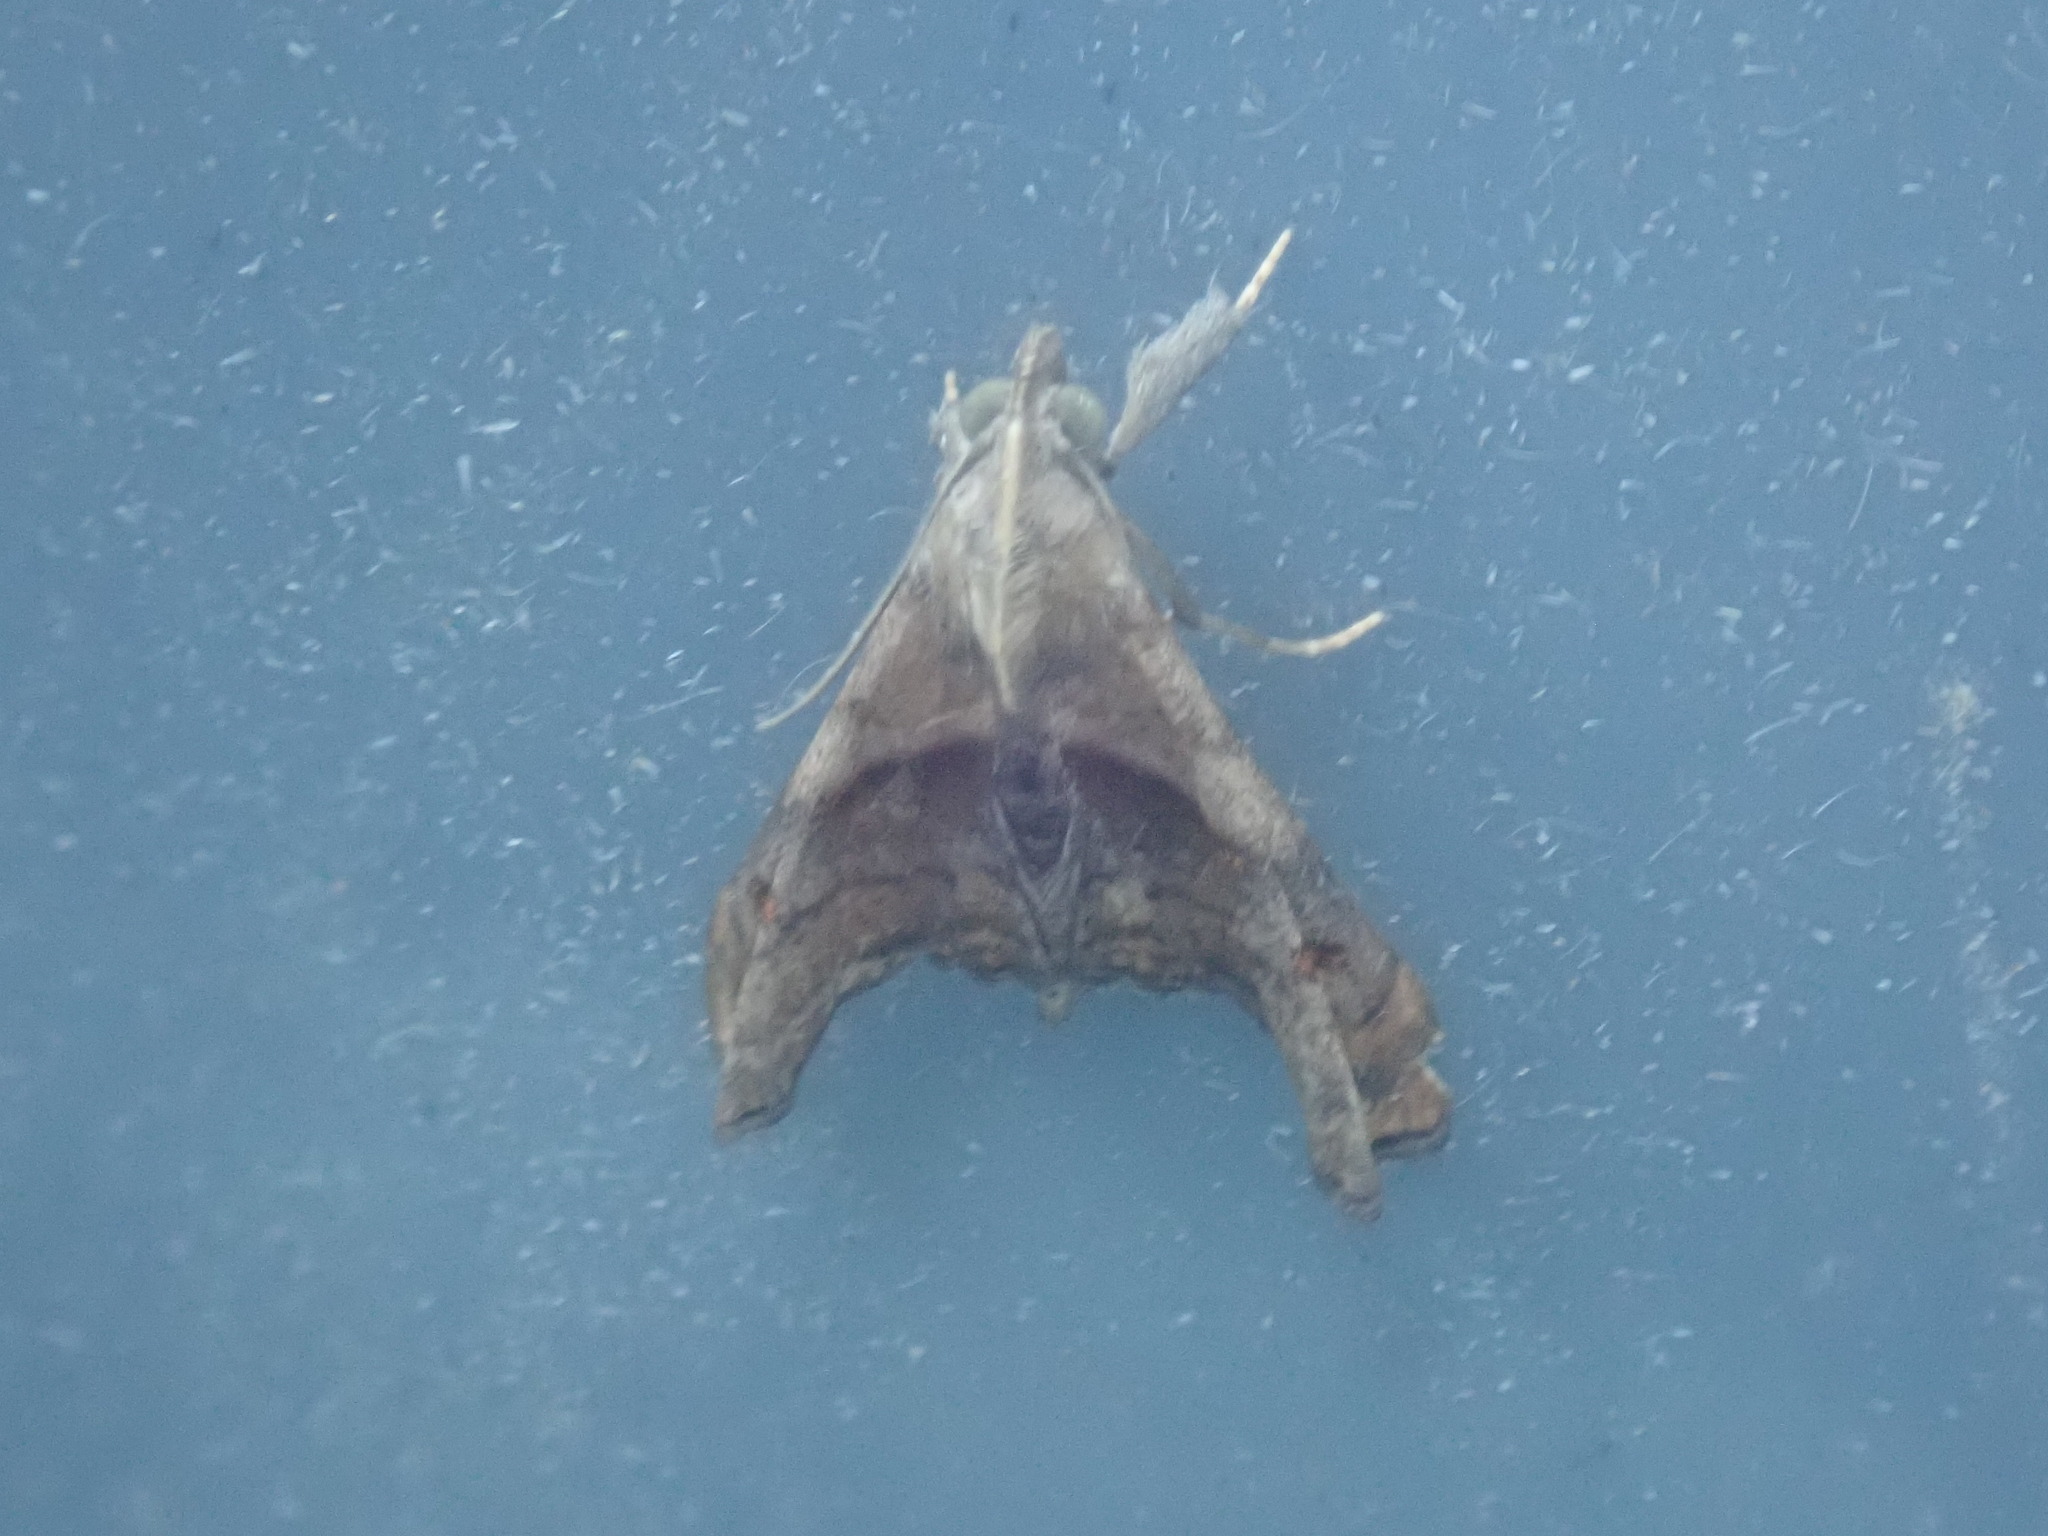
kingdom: Animalia
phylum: Arthropoda
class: Insecta
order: Lepidoptera
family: Erebidae
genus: Palthis
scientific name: Palthis angulalis
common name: Dark-spotted palthis moth
